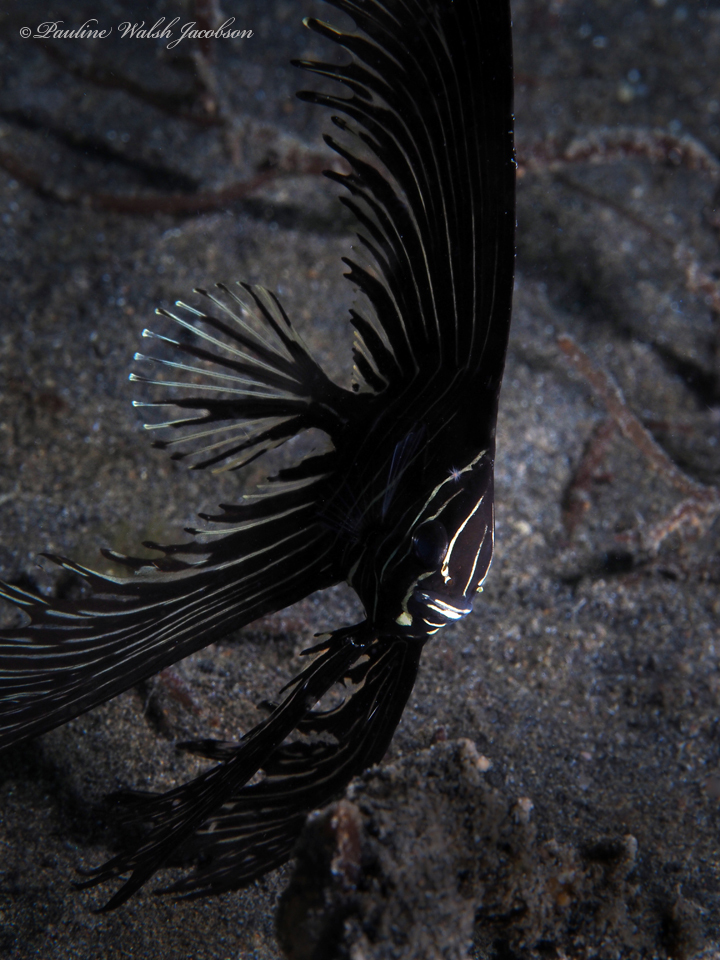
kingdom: Animalia
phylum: Chordata
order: Perciformes
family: Ephippidae
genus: Platax
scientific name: Platax batavianus
